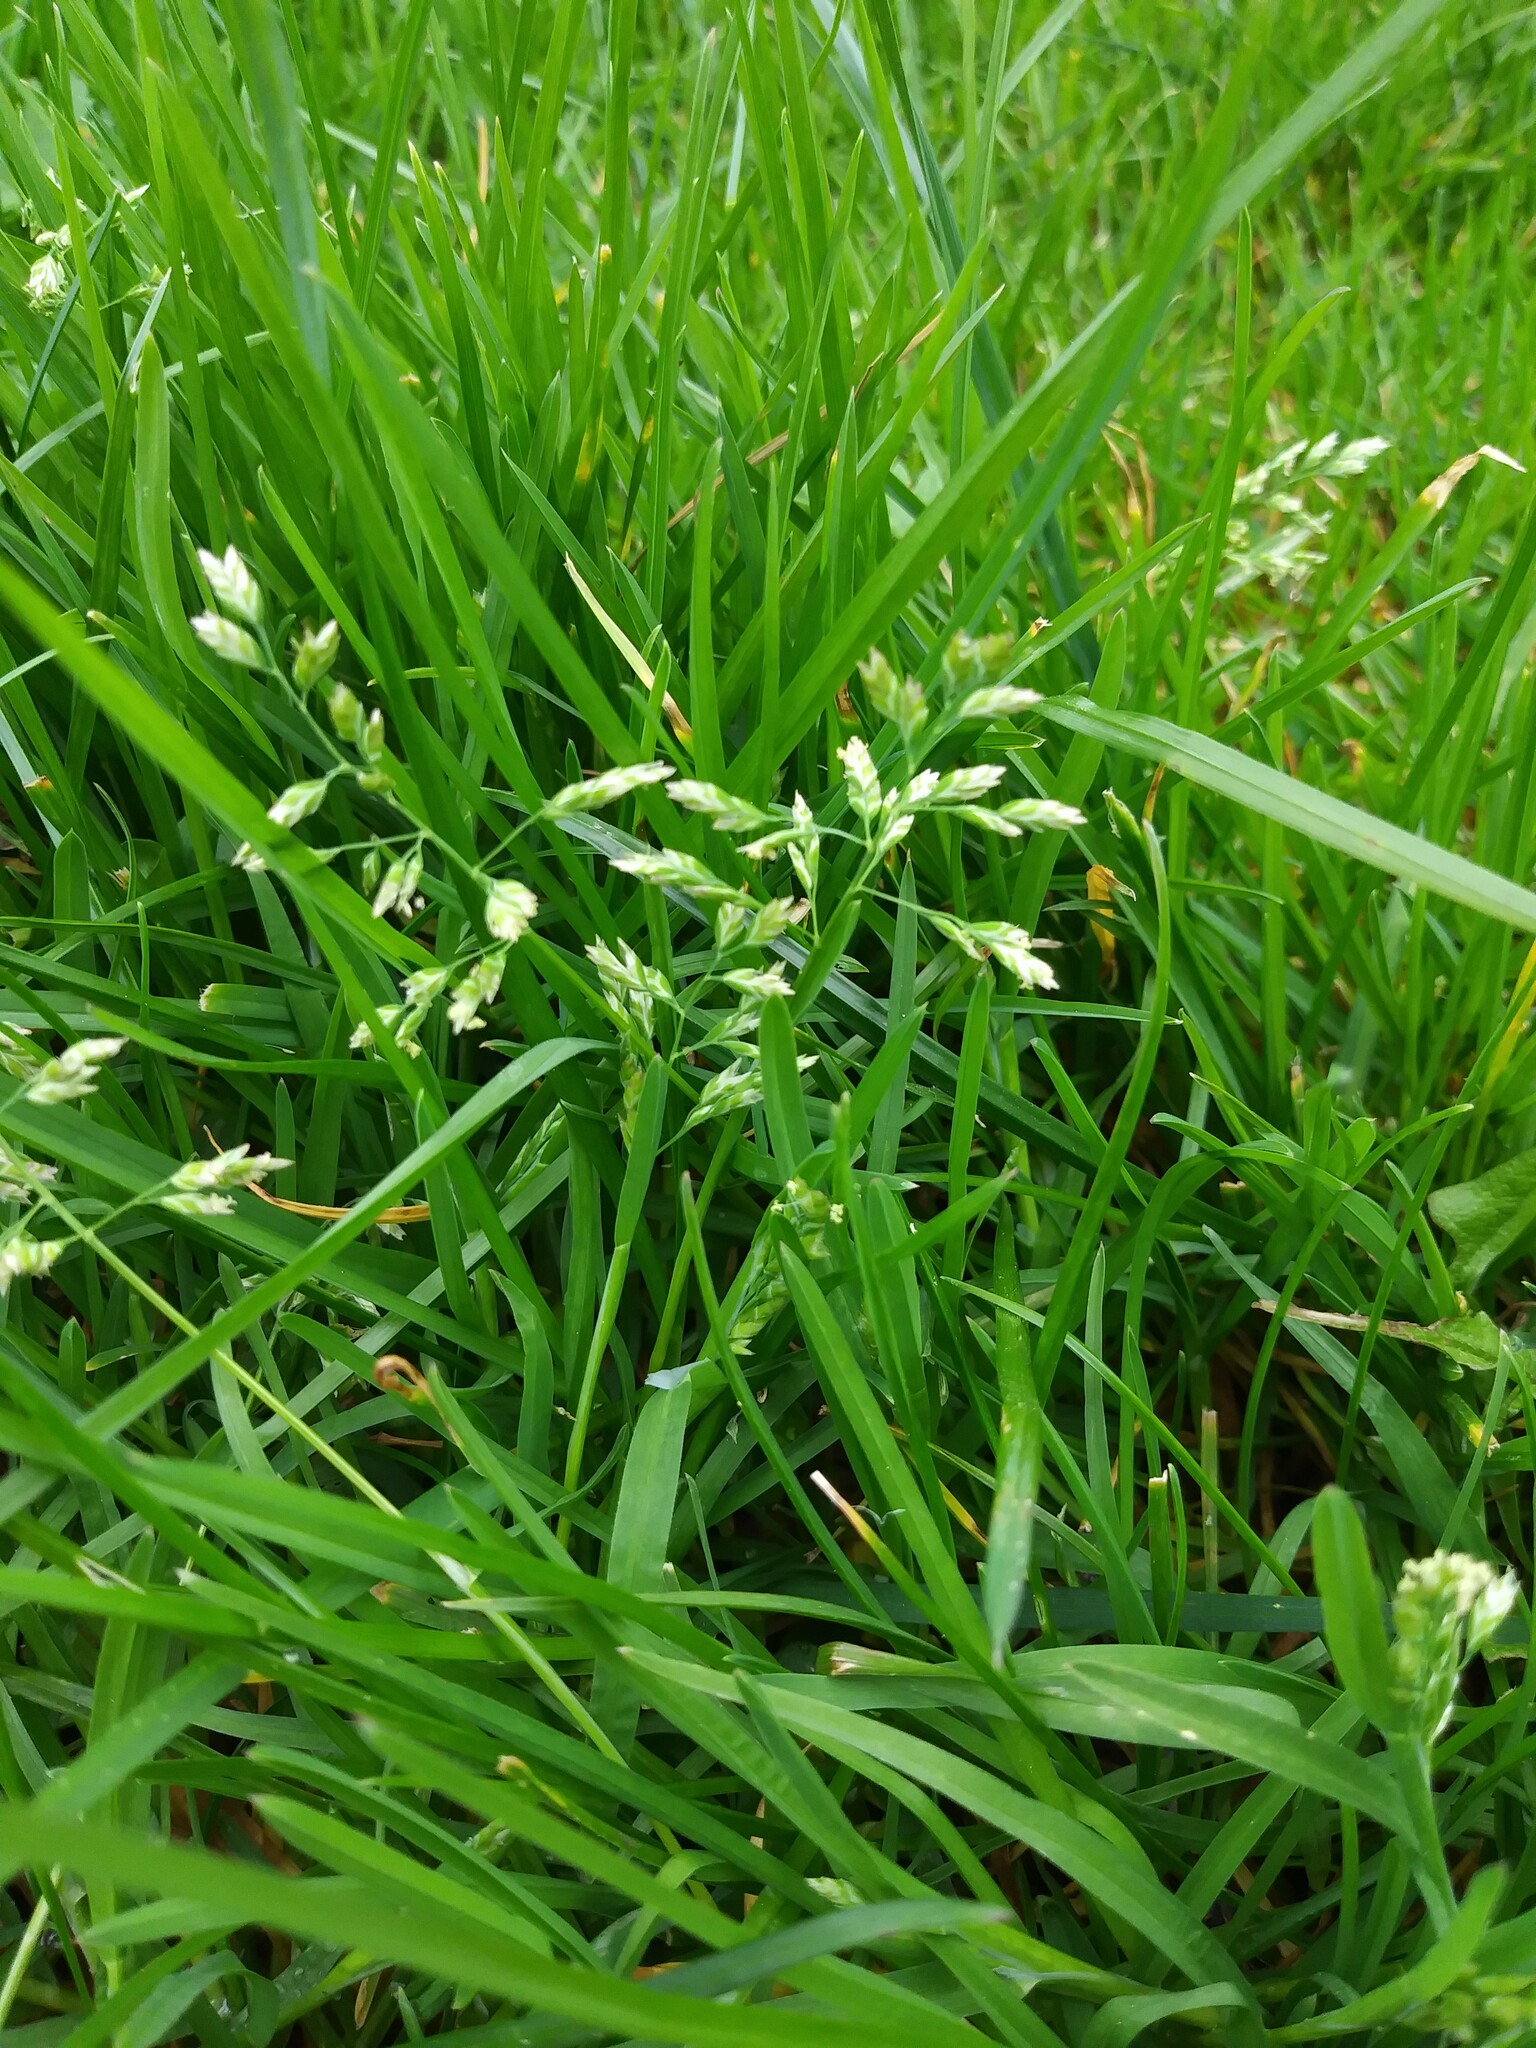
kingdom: Plantae
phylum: Tracheophyta
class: Liliopsida
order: Poales
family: Poaceae
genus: Poa
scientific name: Poa annua
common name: Annual bluegrass
